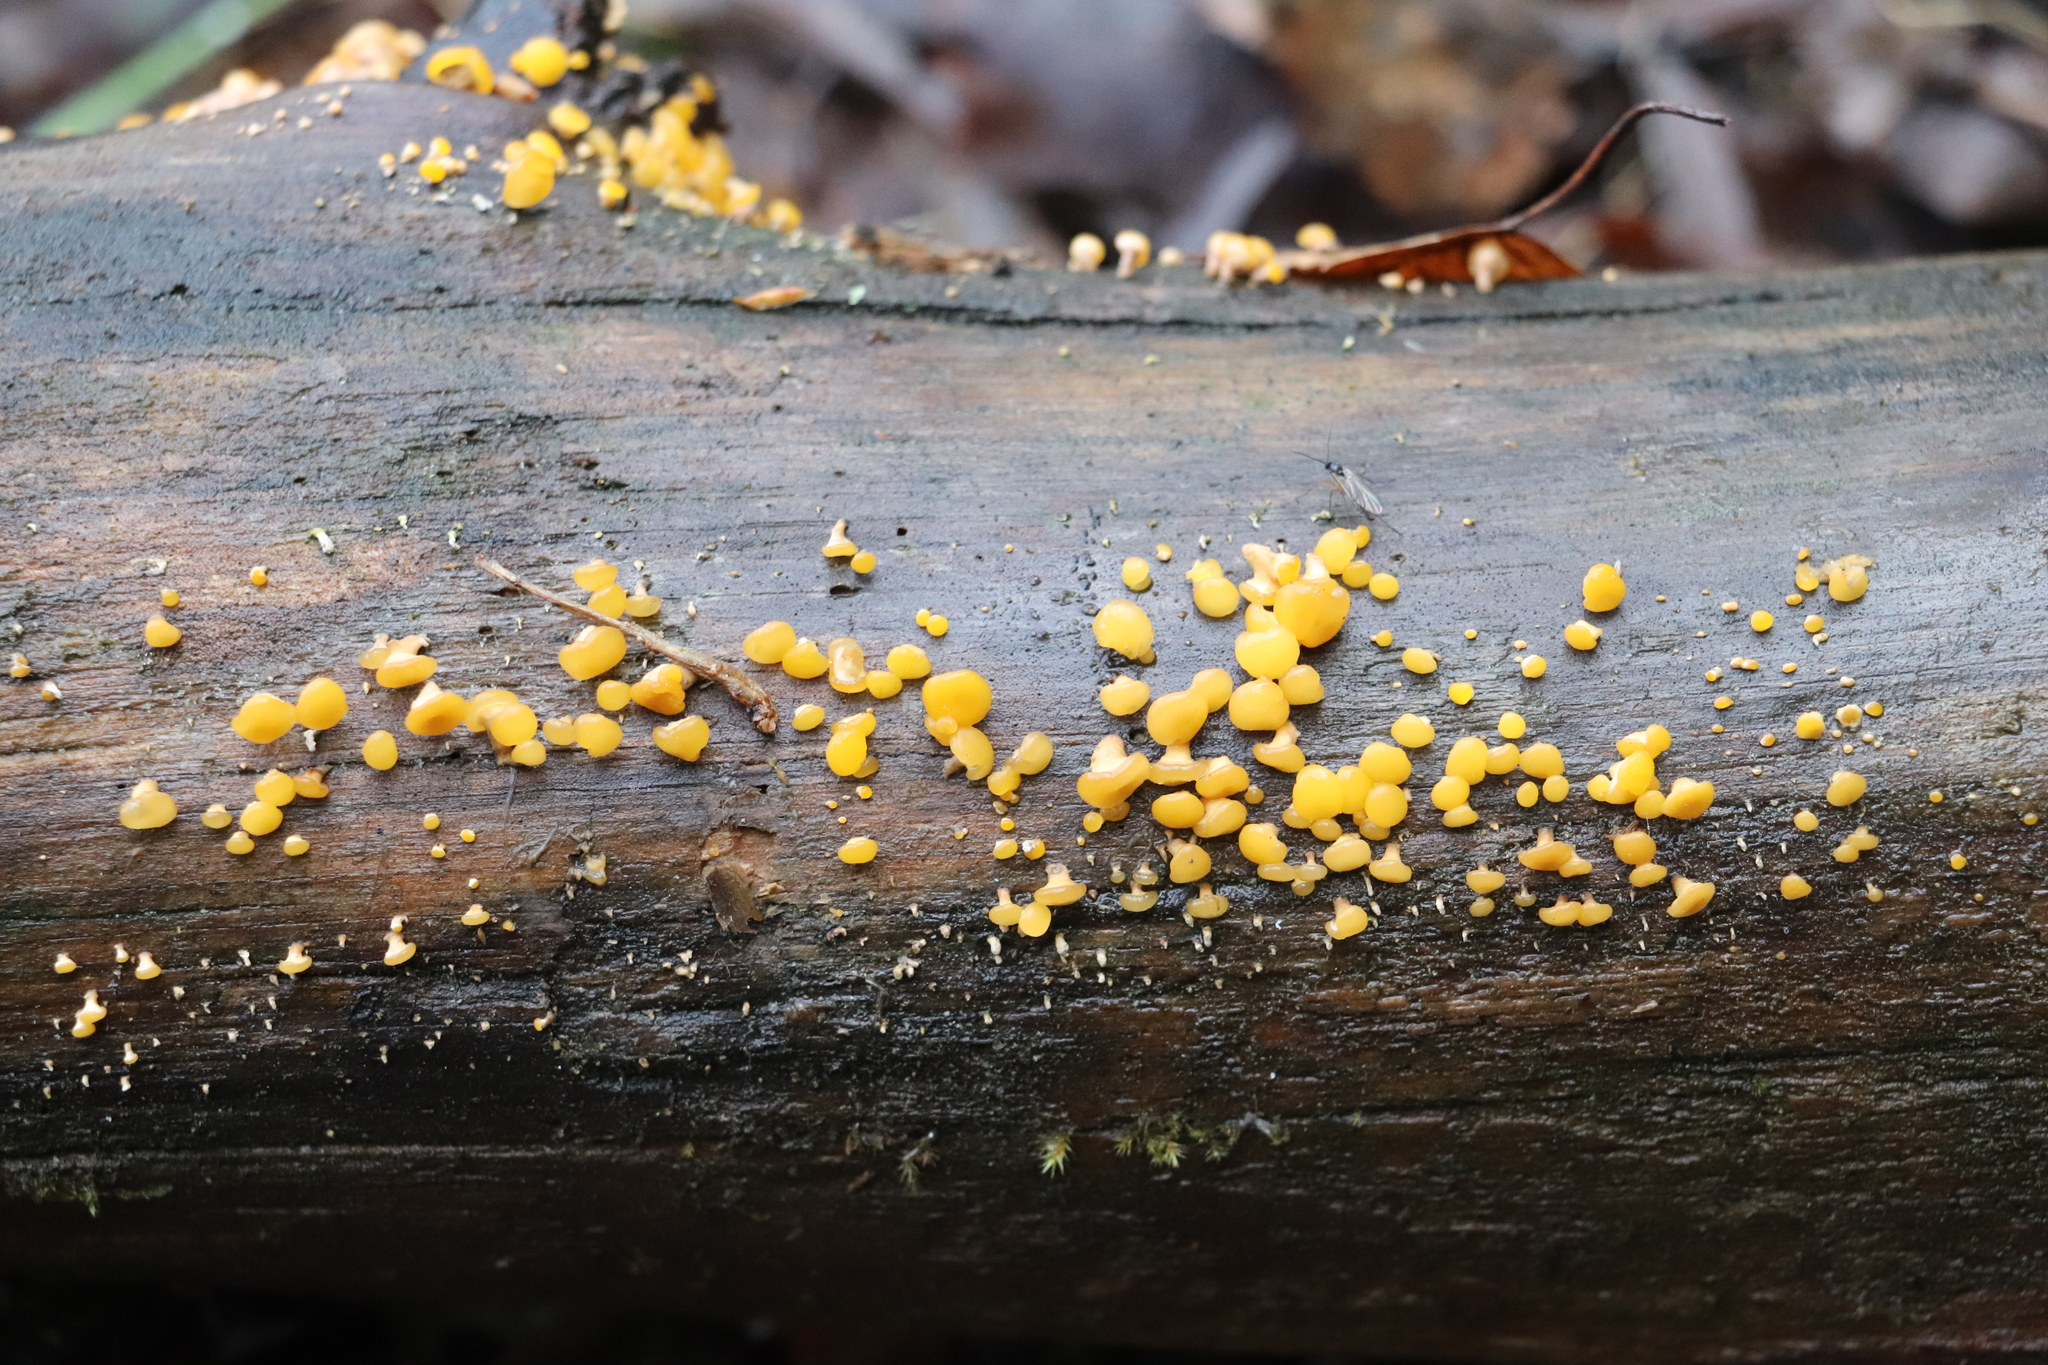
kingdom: Fungi
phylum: Basidiomycota
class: Dacrymycetes
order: Dacrymycetales
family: Dacrymycetaceae
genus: Ditiola
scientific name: Ditiola radicata
